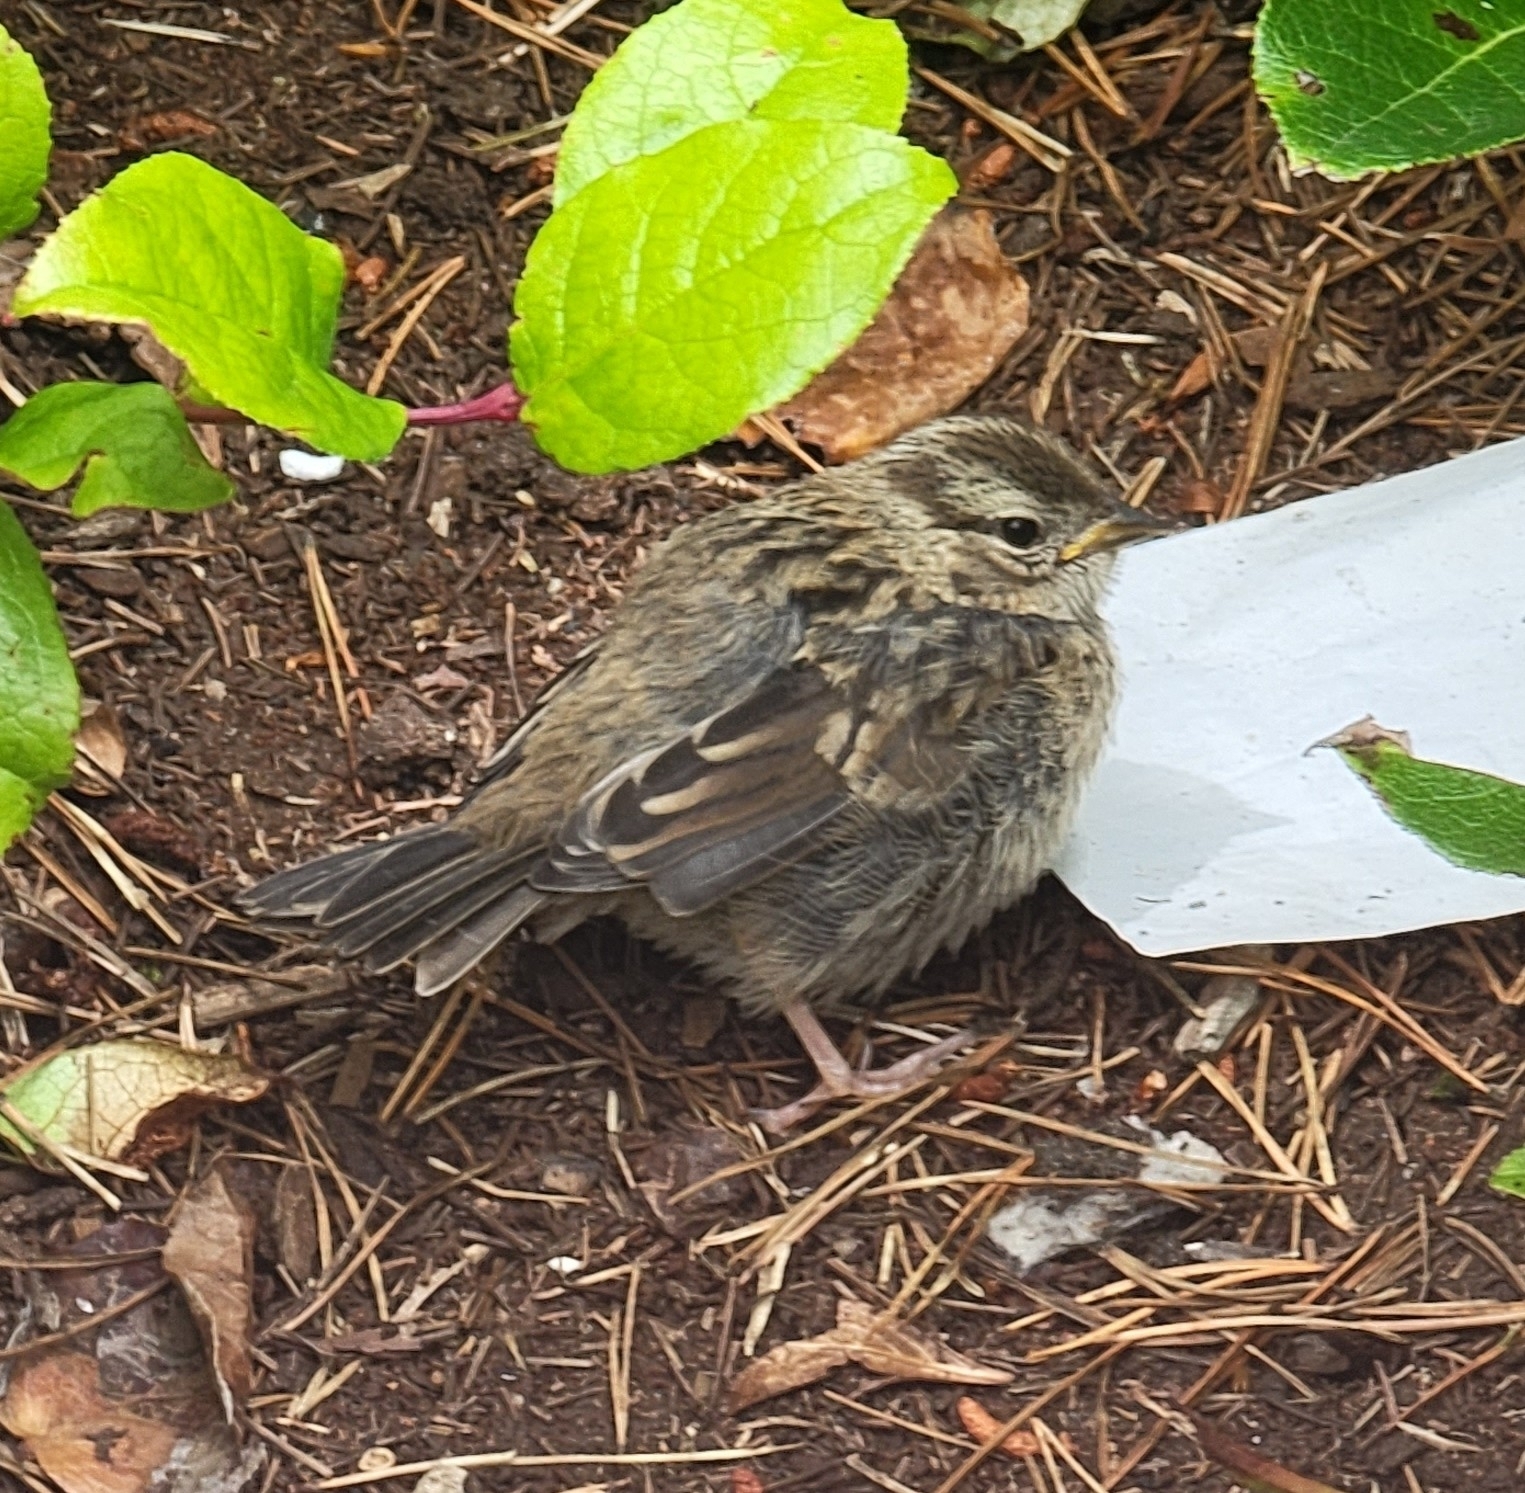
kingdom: Animalia
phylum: Chordata
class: Aves
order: Passeriformes
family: Passerellidae
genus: Zonotrichia
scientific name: Zonotrichia leucophrys
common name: White-crowned sparrow
